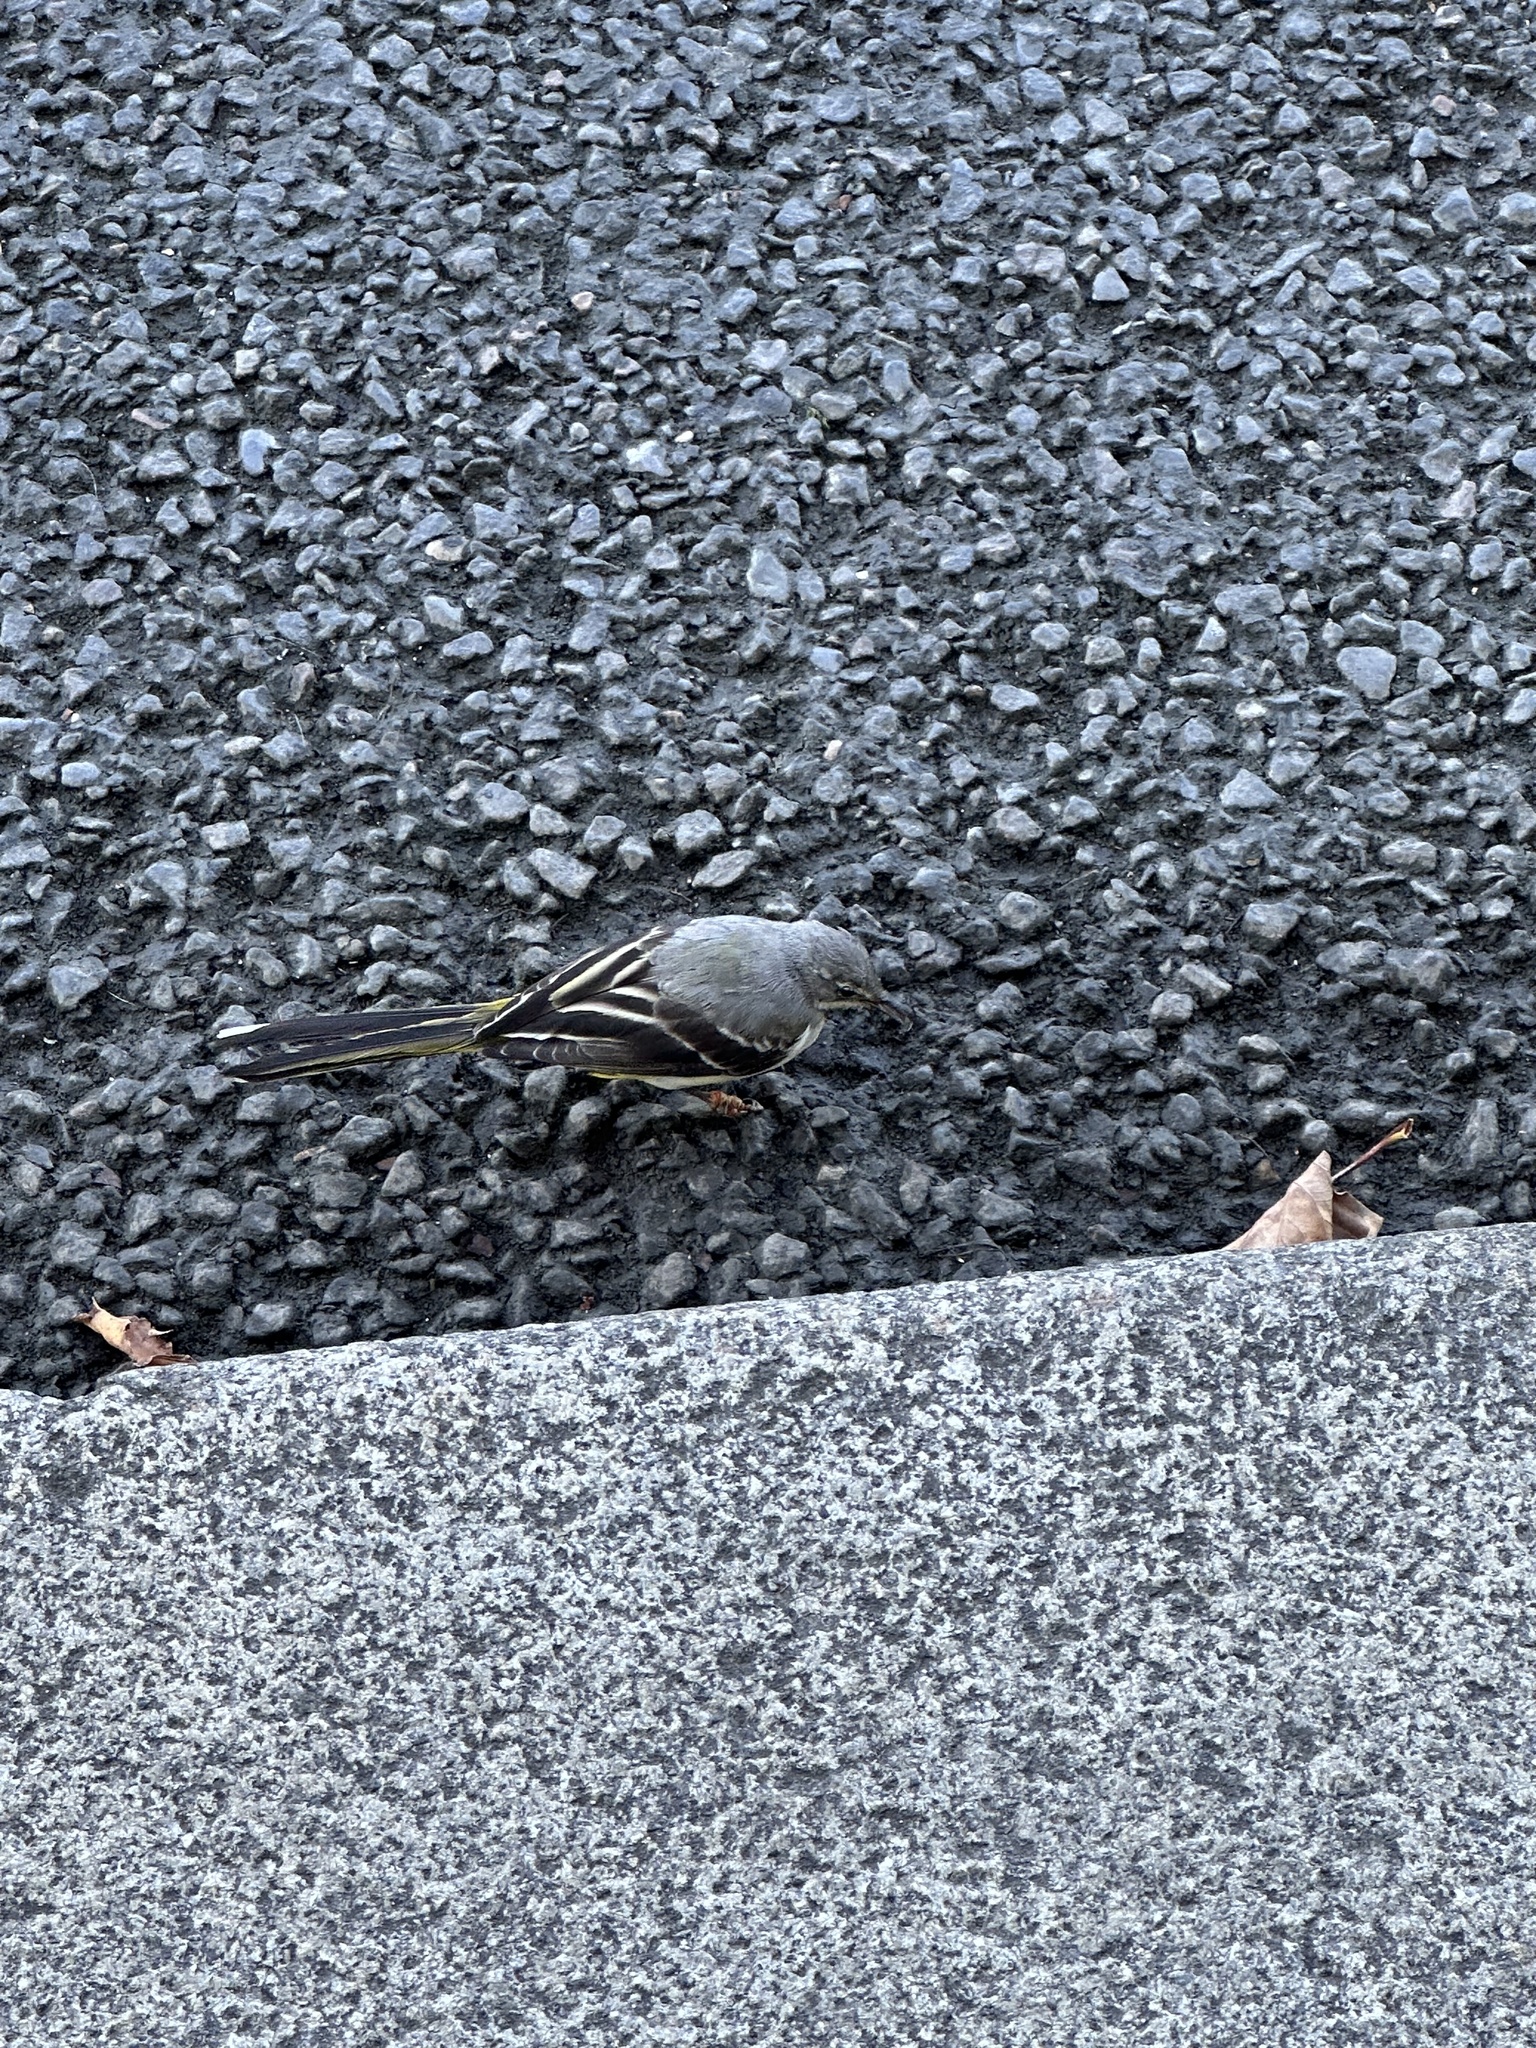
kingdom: Animalia
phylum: Chordata
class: Aves
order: Passeriformes
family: Motacillidae
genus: Motacilla
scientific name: Motacilla cinerea
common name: Grey wagtail
